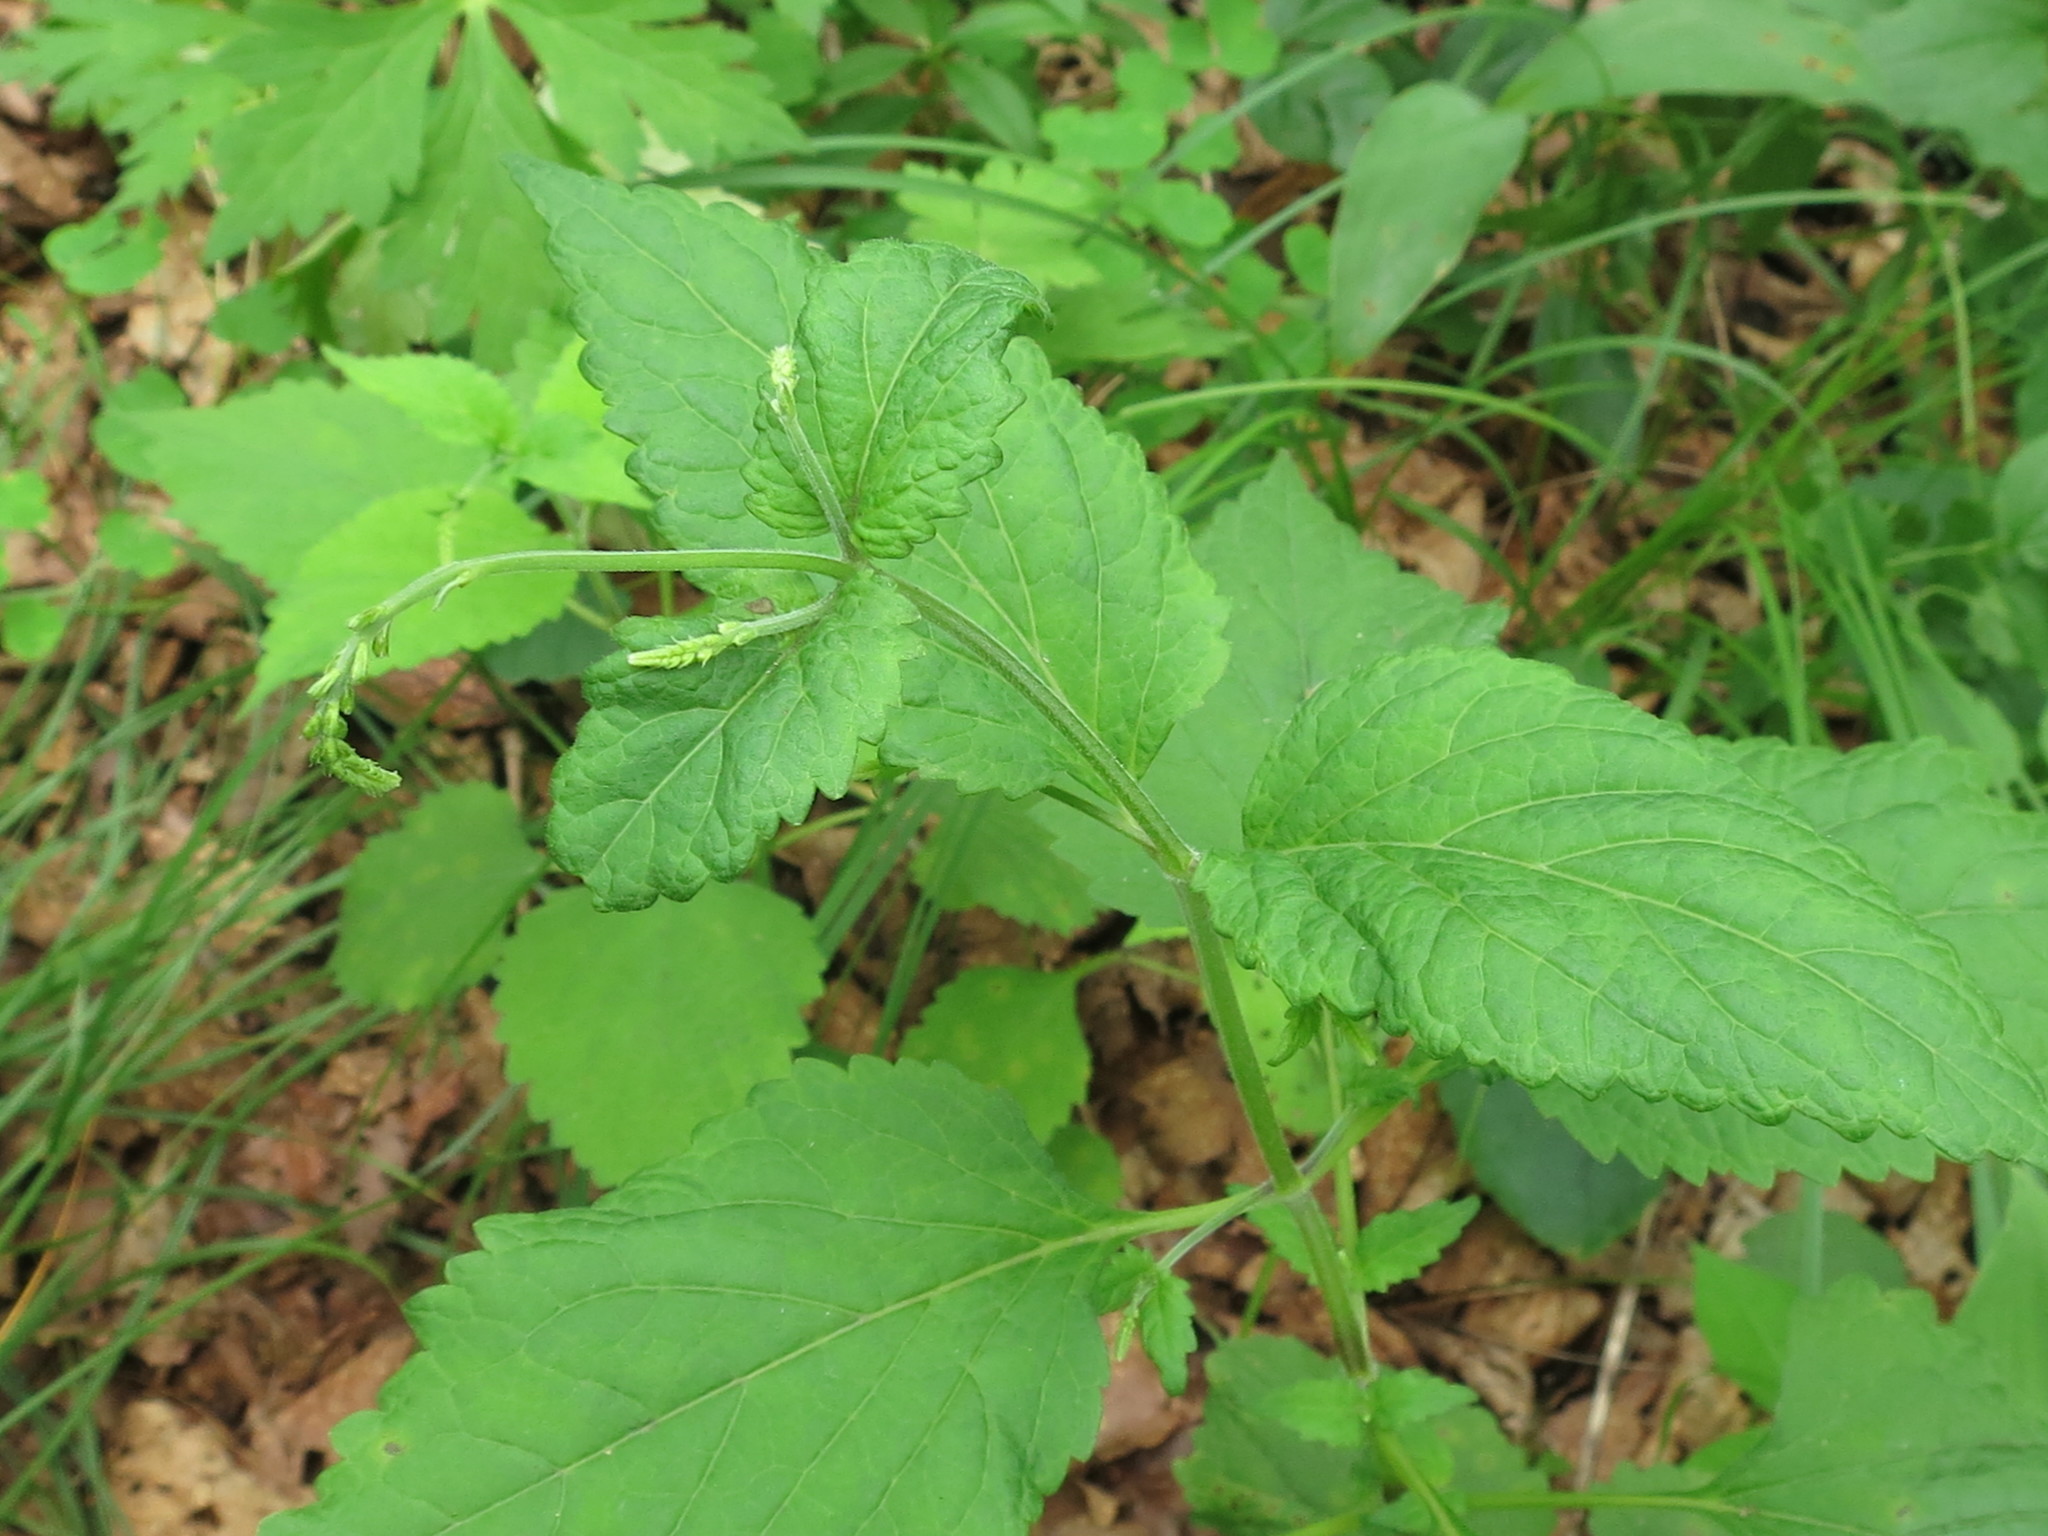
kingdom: Plantae
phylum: Tracheophyta
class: Magnoliopsida
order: Lamiales
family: Phrymaceae
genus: Phryma
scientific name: Phryma nana
